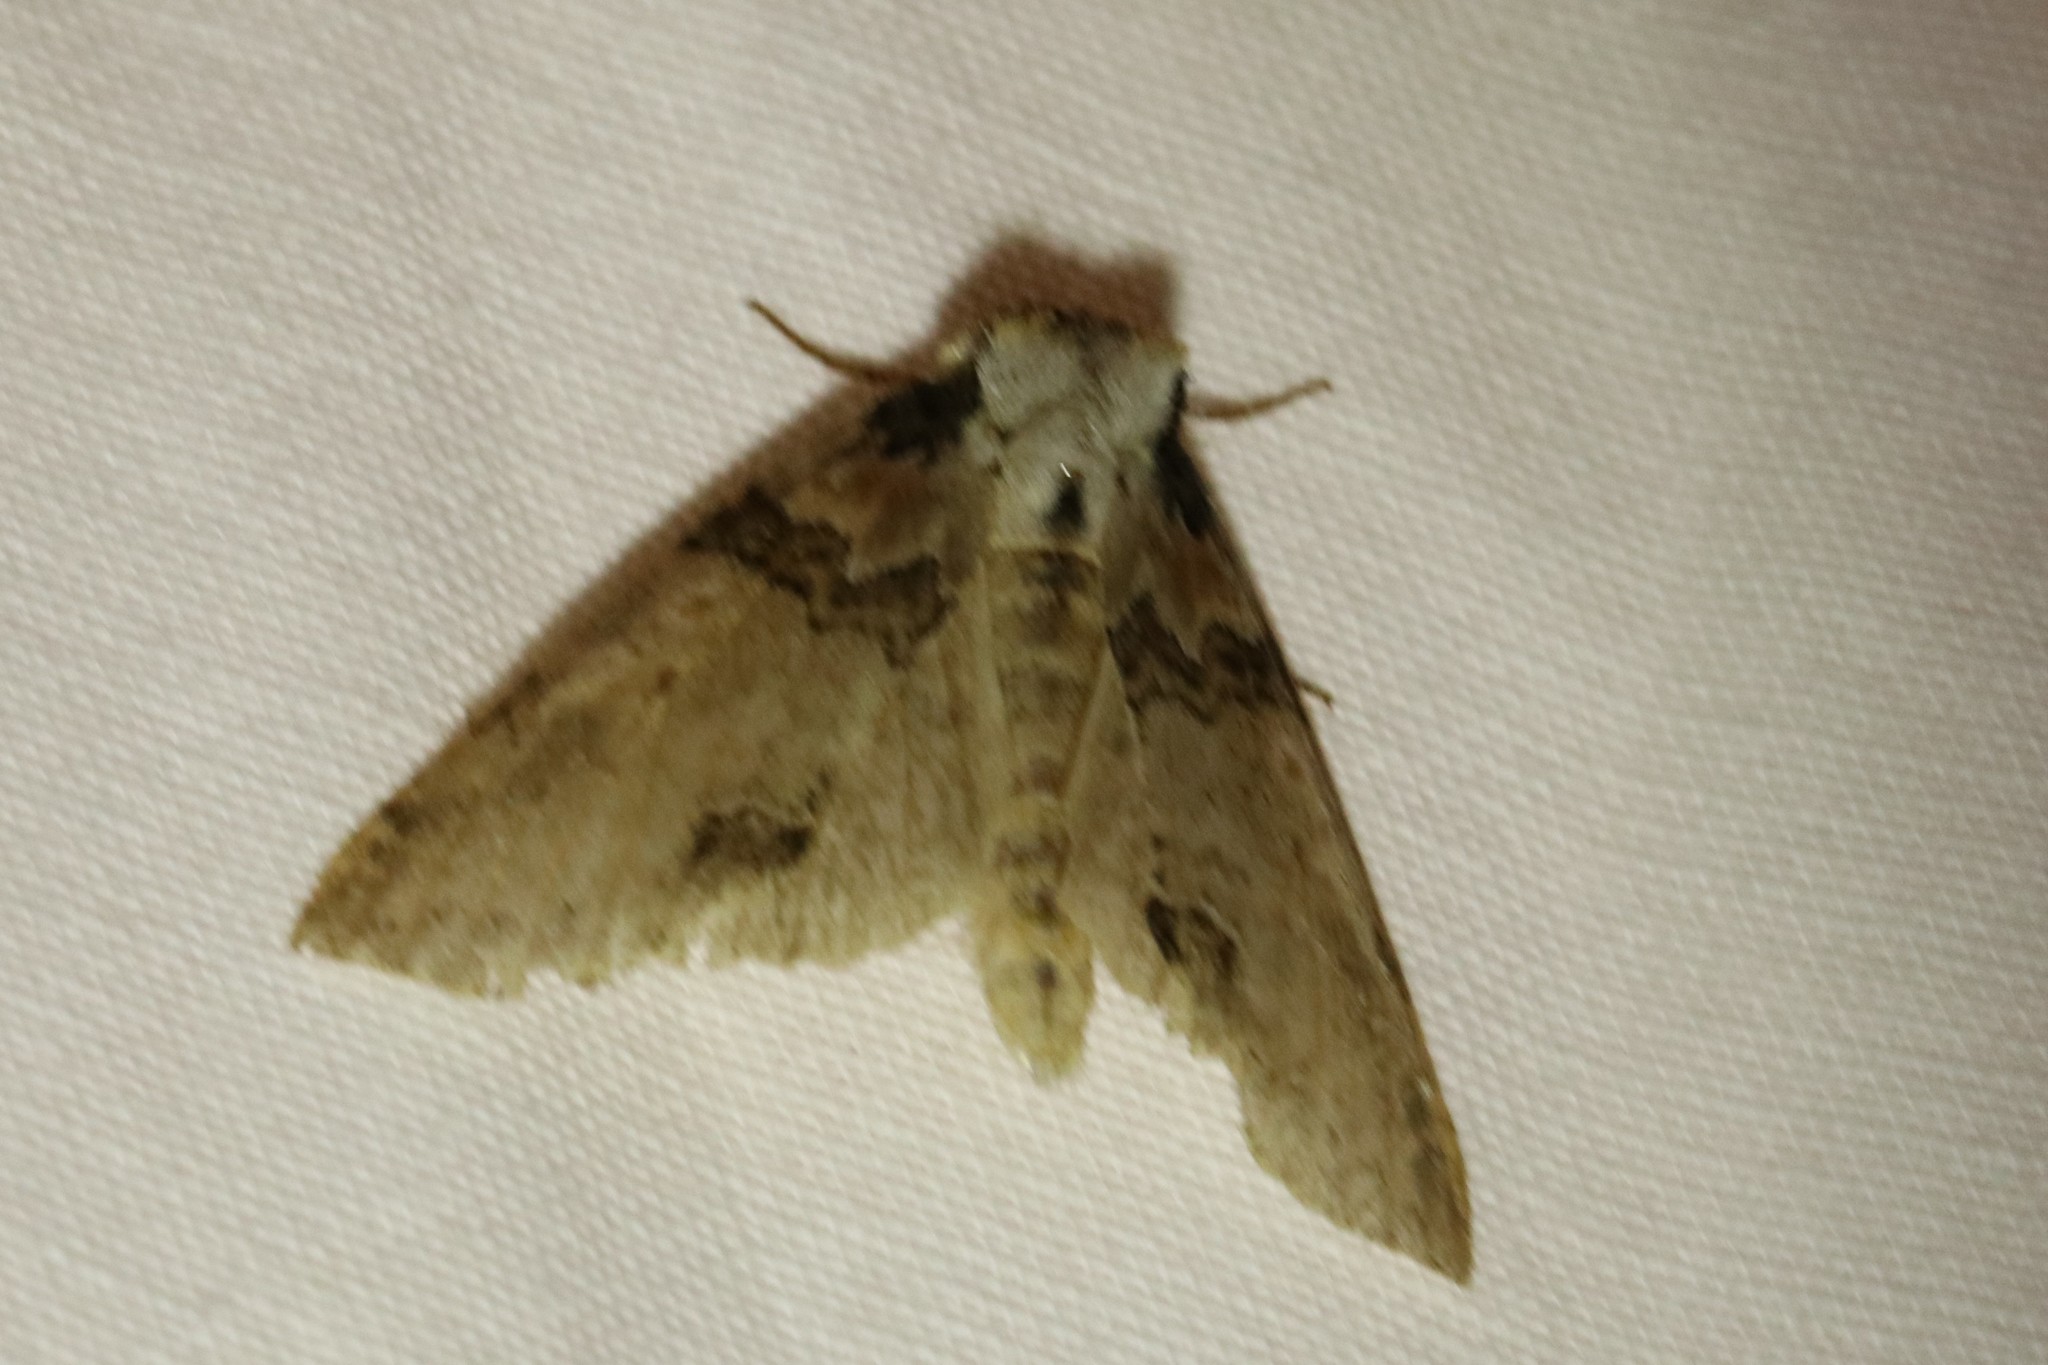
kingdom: Animalia
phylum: Arthropoda
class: Insecta
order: Lepidoptera
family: Drepanidae
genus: Pseudothyatira
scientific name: Pseudothyatira cymatophoroides
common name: Tufted thyatirid moth
